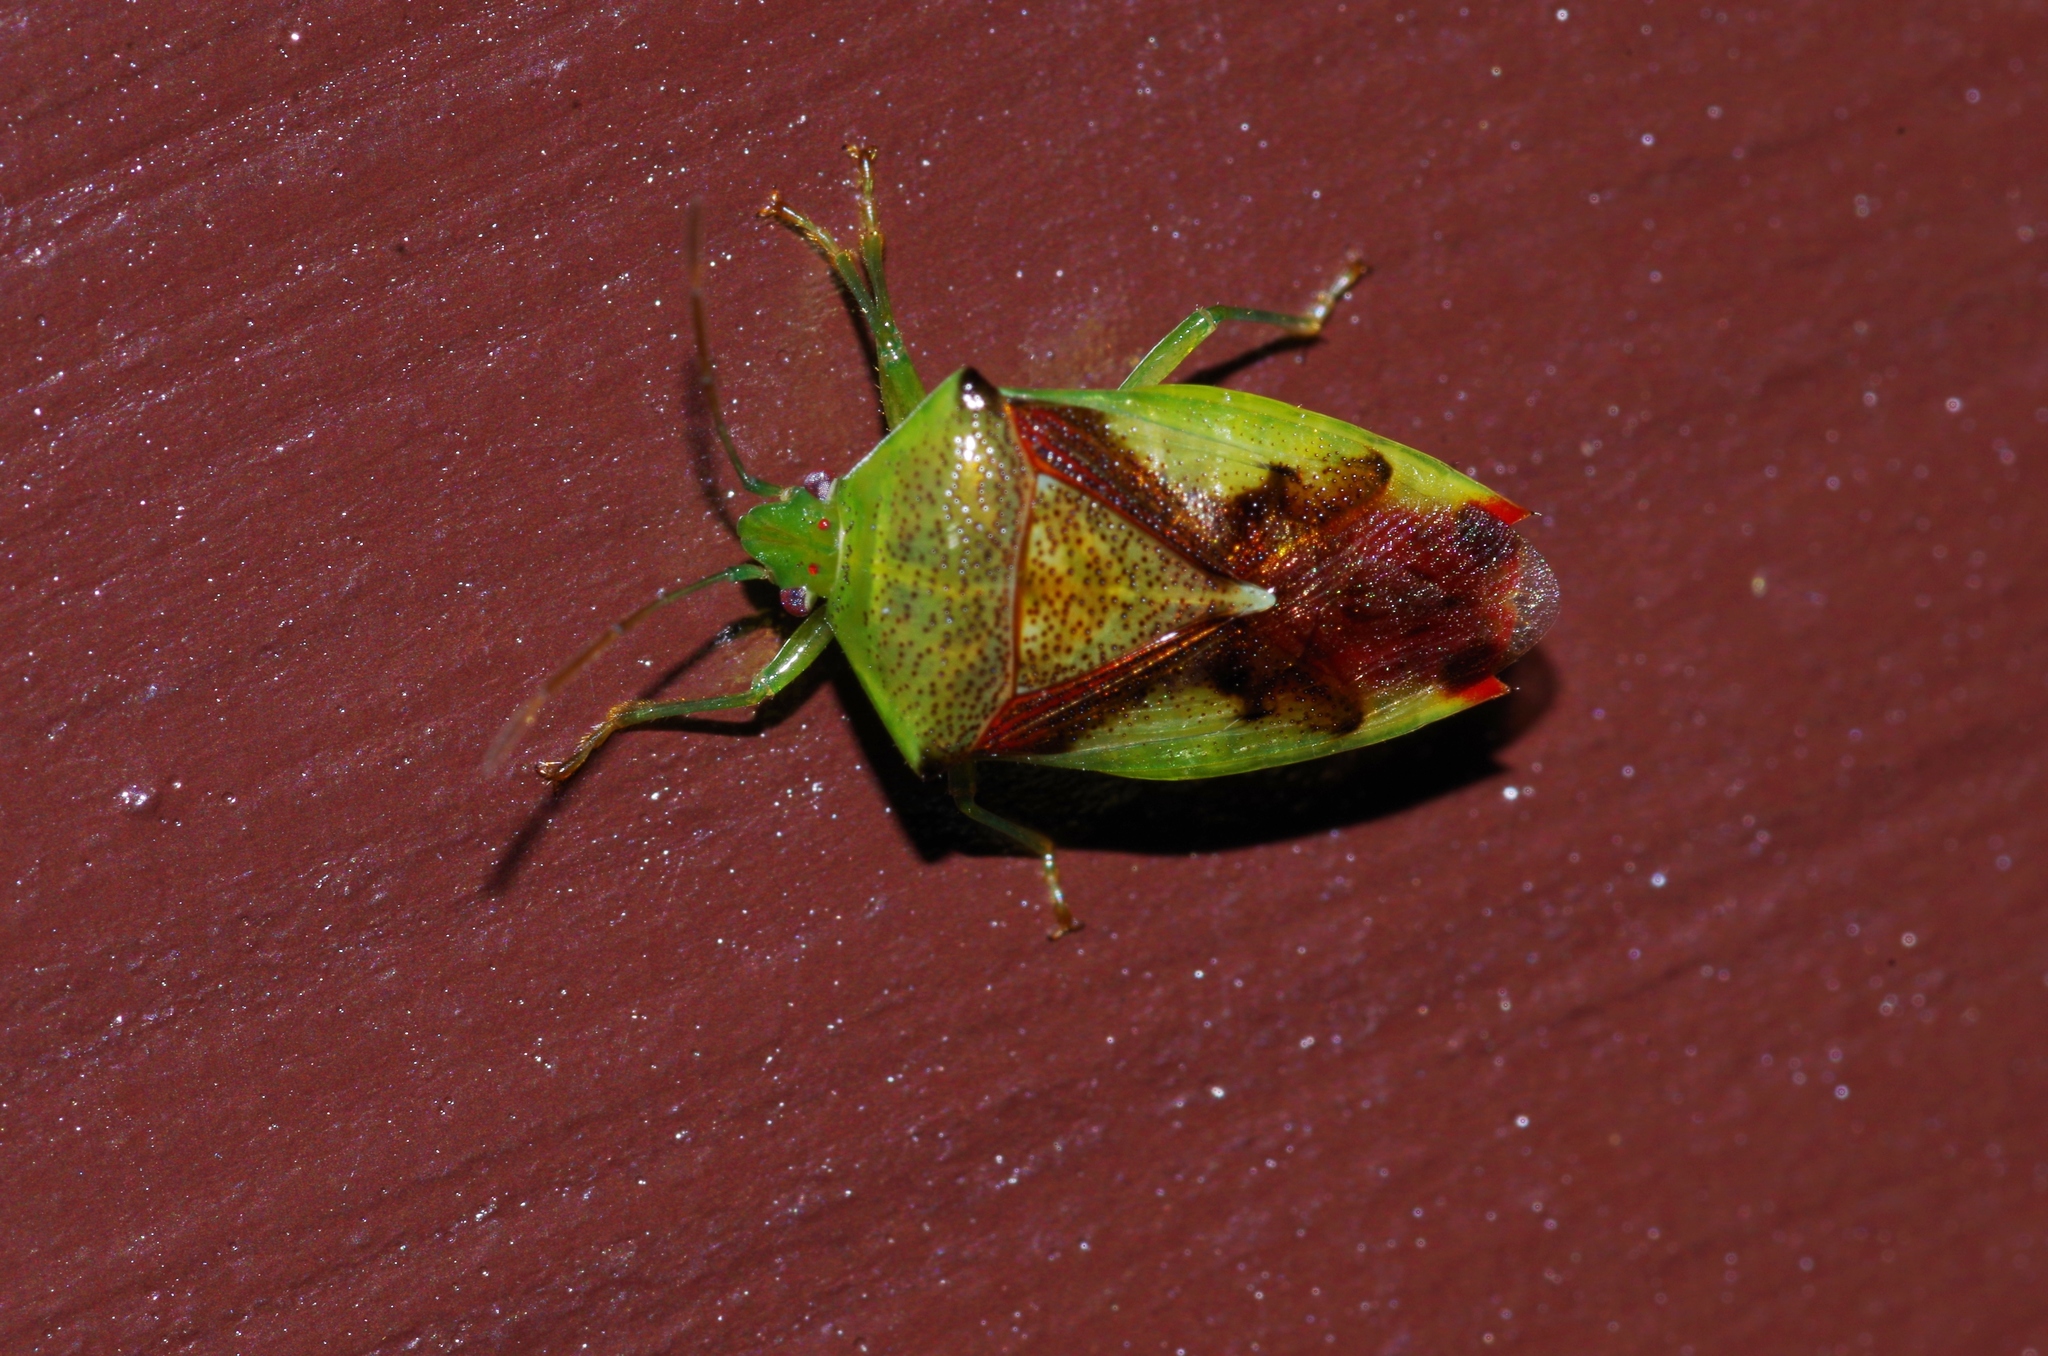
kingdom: Animalia
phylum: Arthropoda
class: Insecta
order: Hemiptera
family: Acanthosomatidae
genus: Elasmostethus
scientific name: Elasmostethus nubilus
